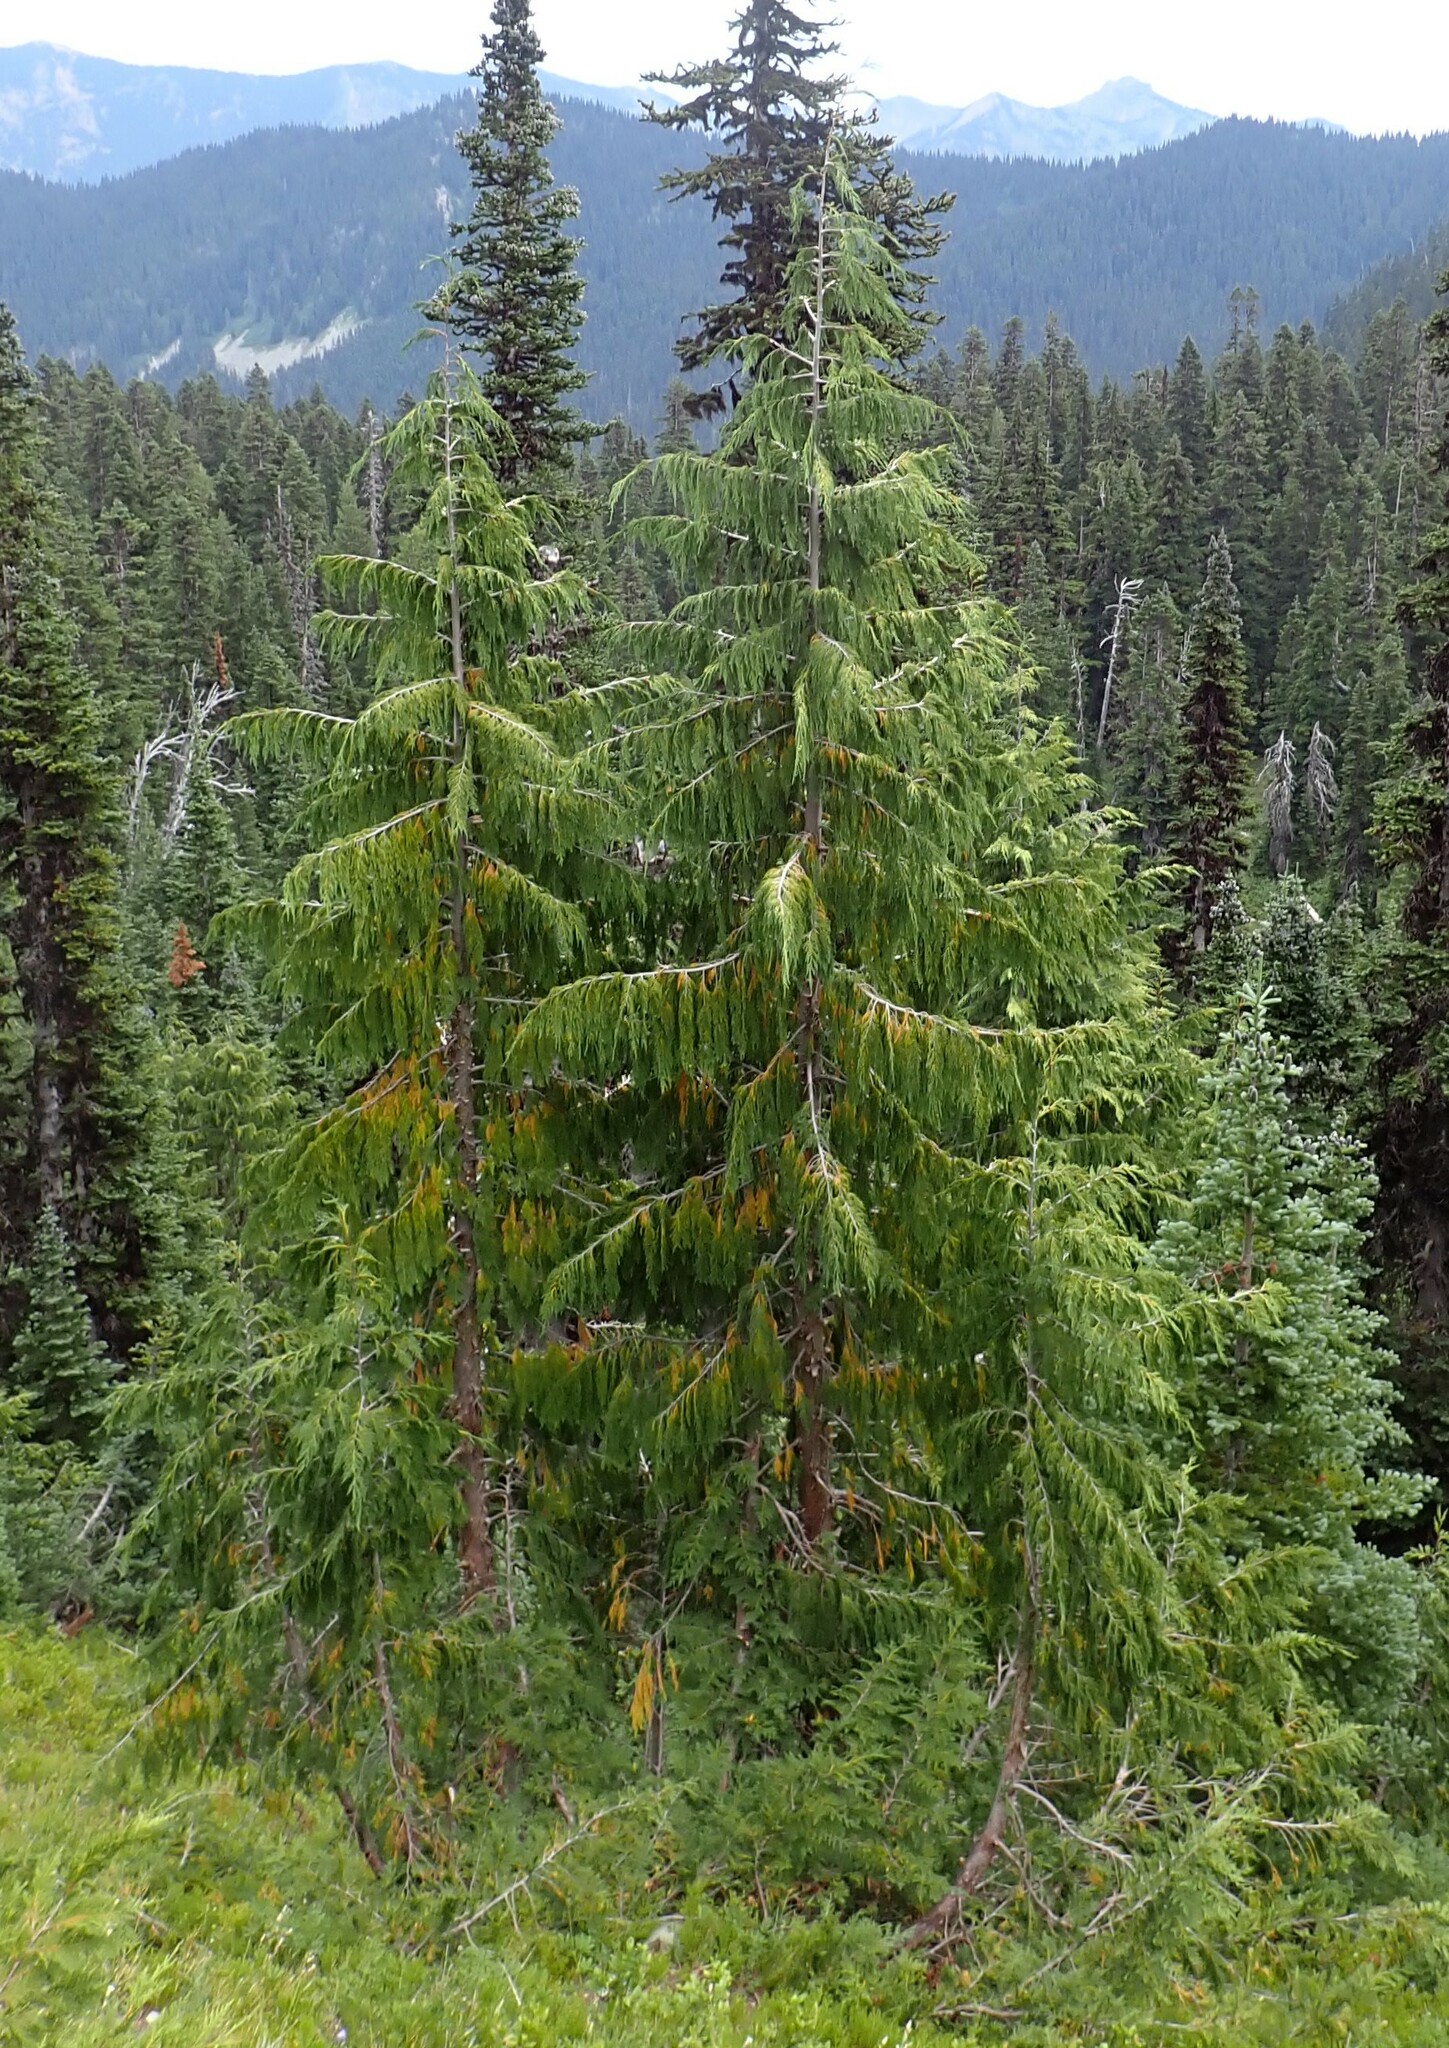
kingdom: Plantae
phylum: Tracheophyta
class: Pinopsida
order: Pinales
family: Cupressaceae
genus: Xanthocyparis
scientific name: Xanthocyparis nootkatensis
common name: Nootka cypress
